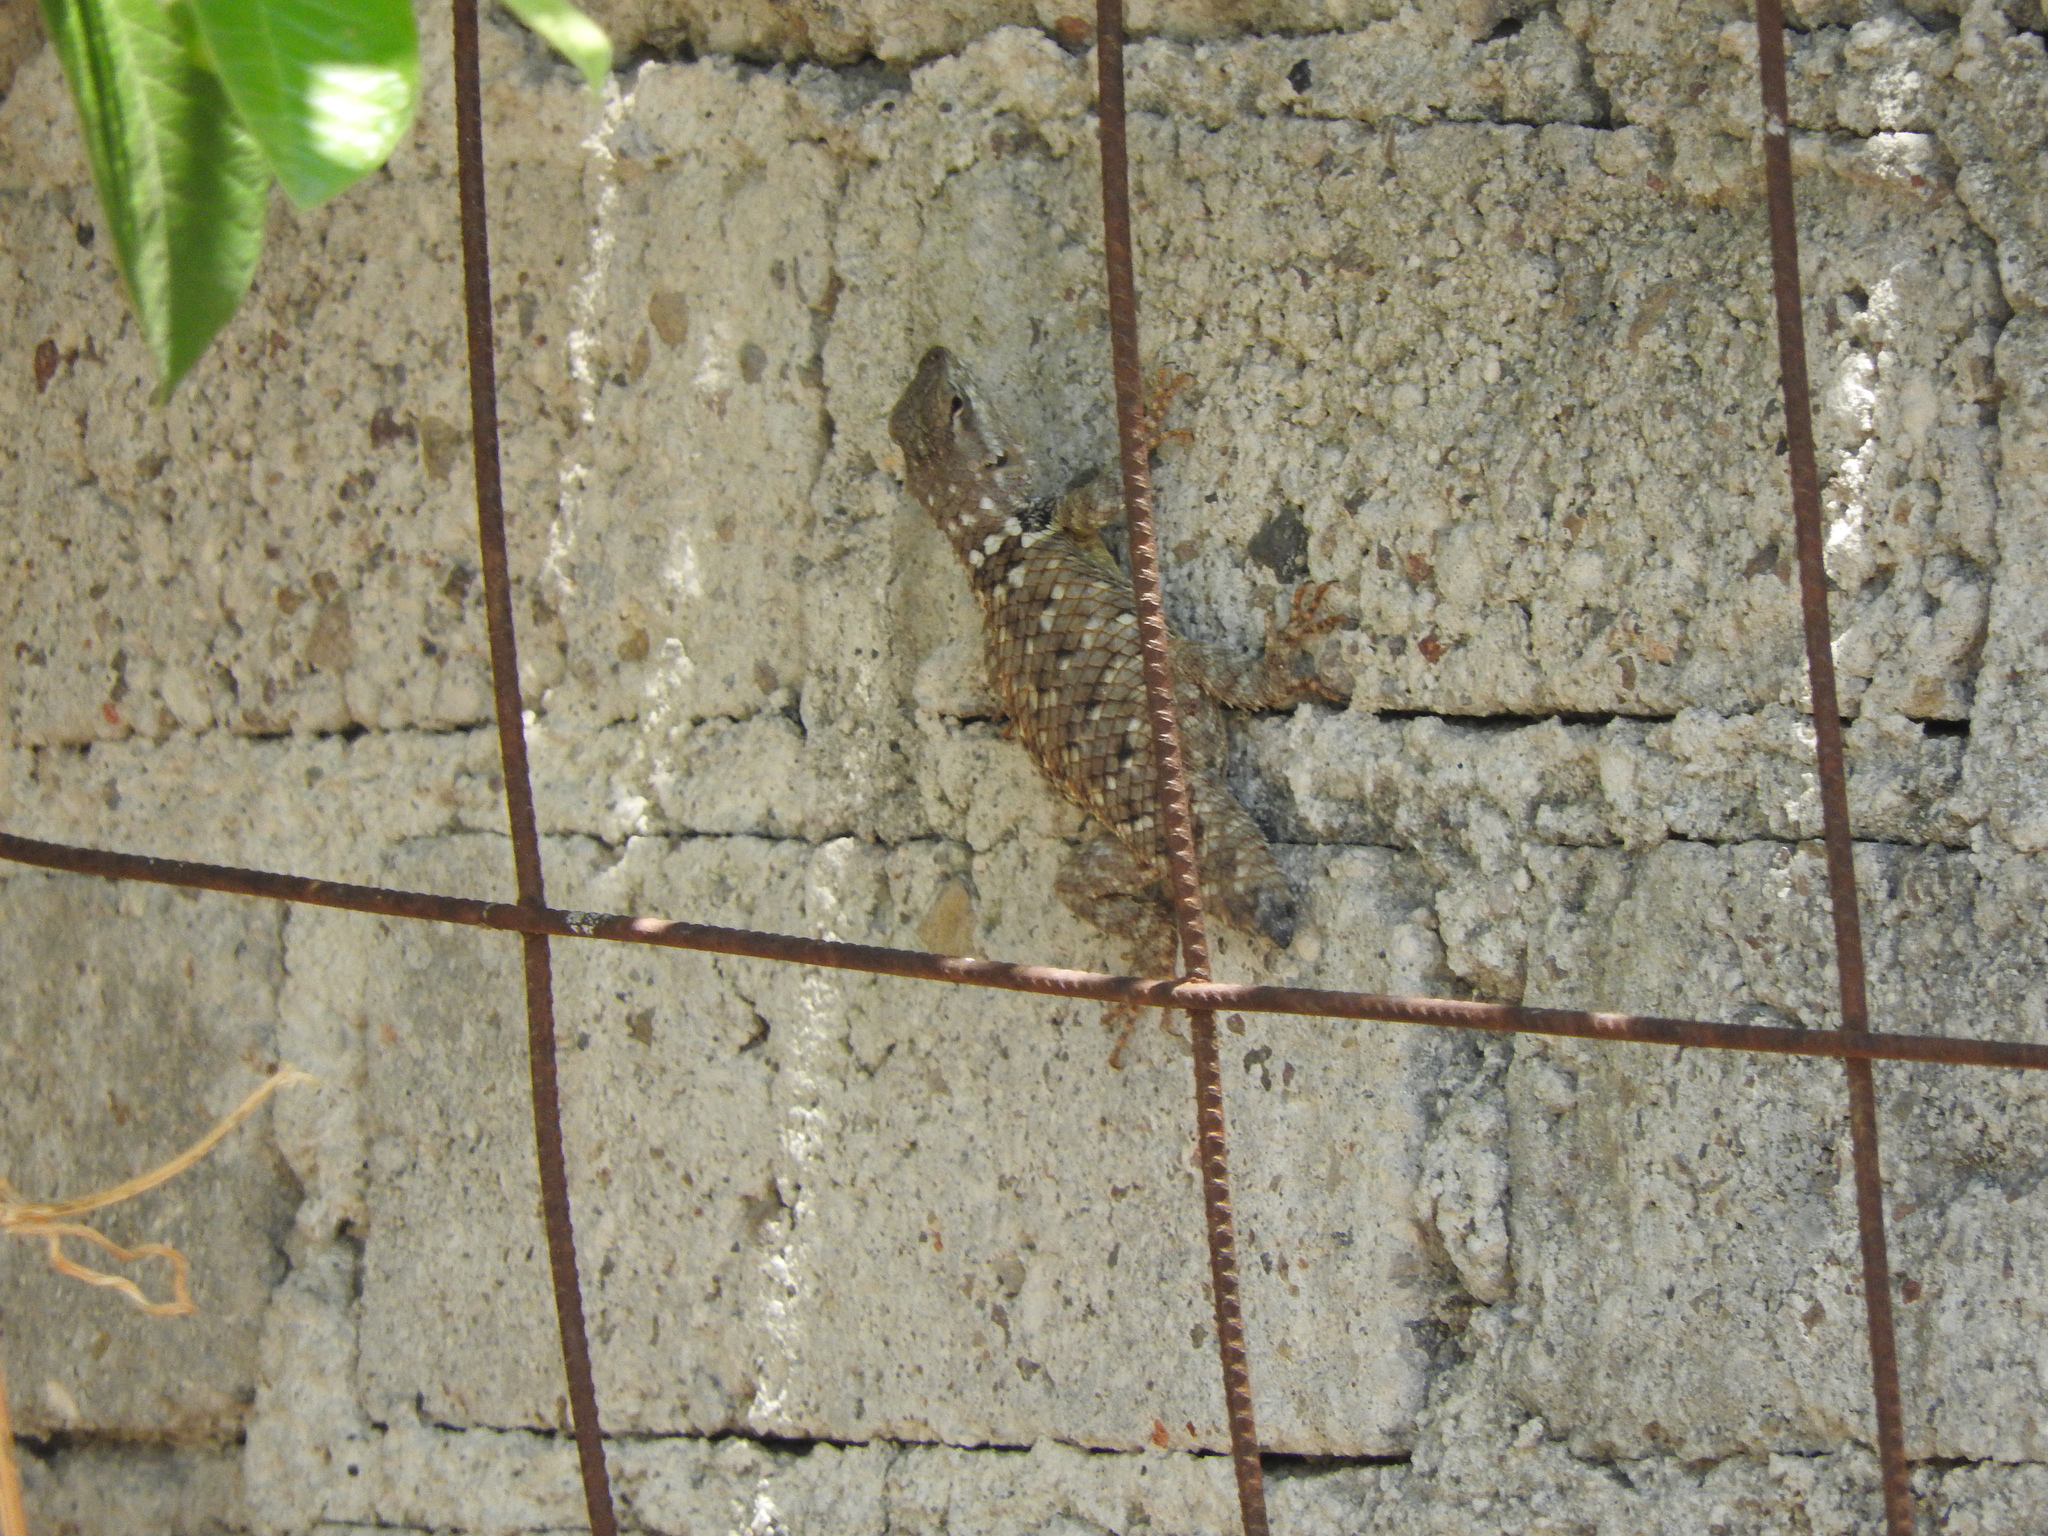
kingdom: Animalia
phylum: Chordata
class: Squamata
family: Phrynosomatidae
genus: Sceloporus
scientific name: Sceloporus torquatus
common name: Central plateau torquate lizard [melanogaster]
